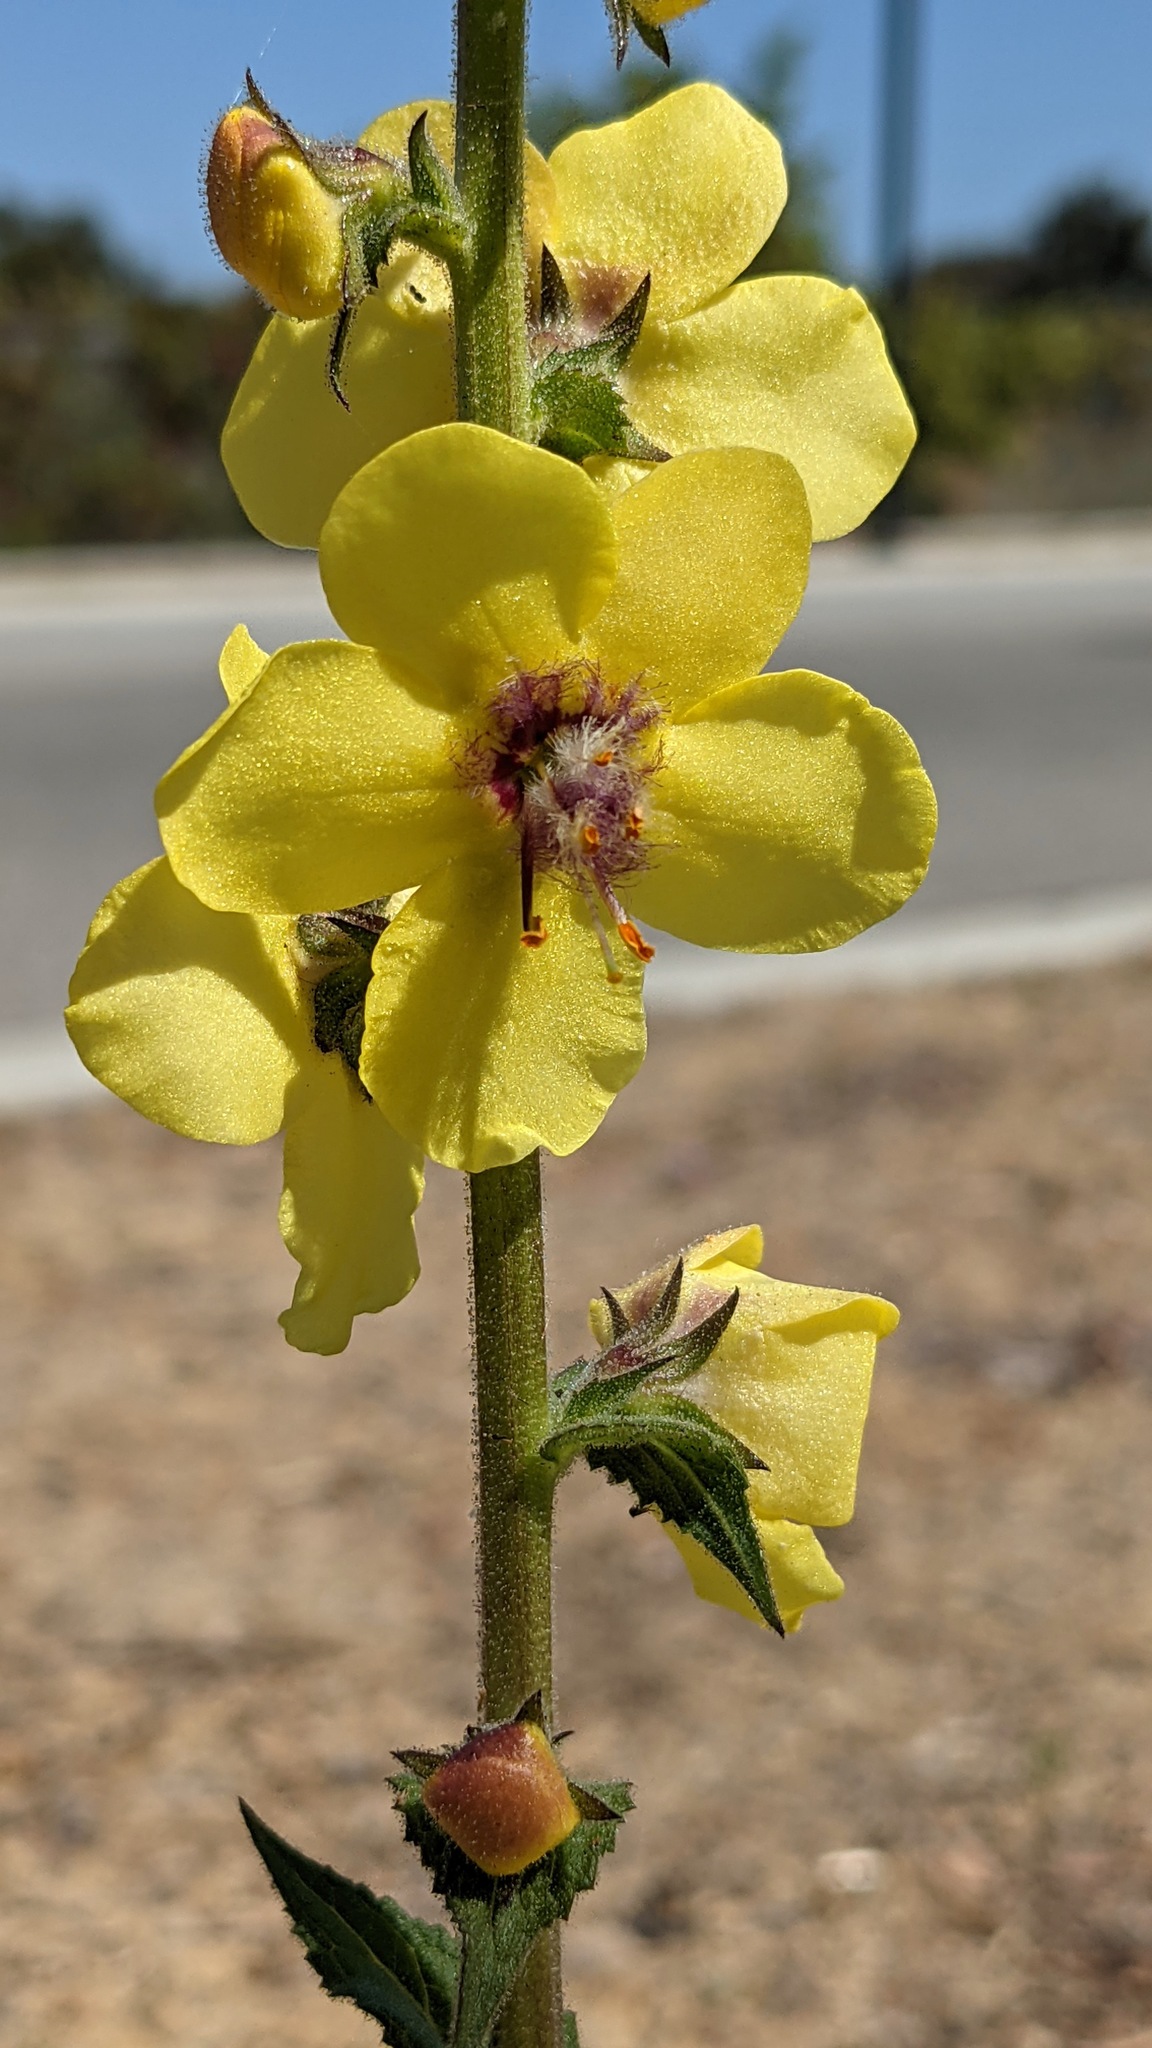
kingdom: Plantae
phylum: Tracheophyta
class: Magnoliopsida
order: Lamiales
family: Scrophulariaceae
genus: Verbascum
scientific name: Verbascum virgatum
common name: Twiggy mullein
